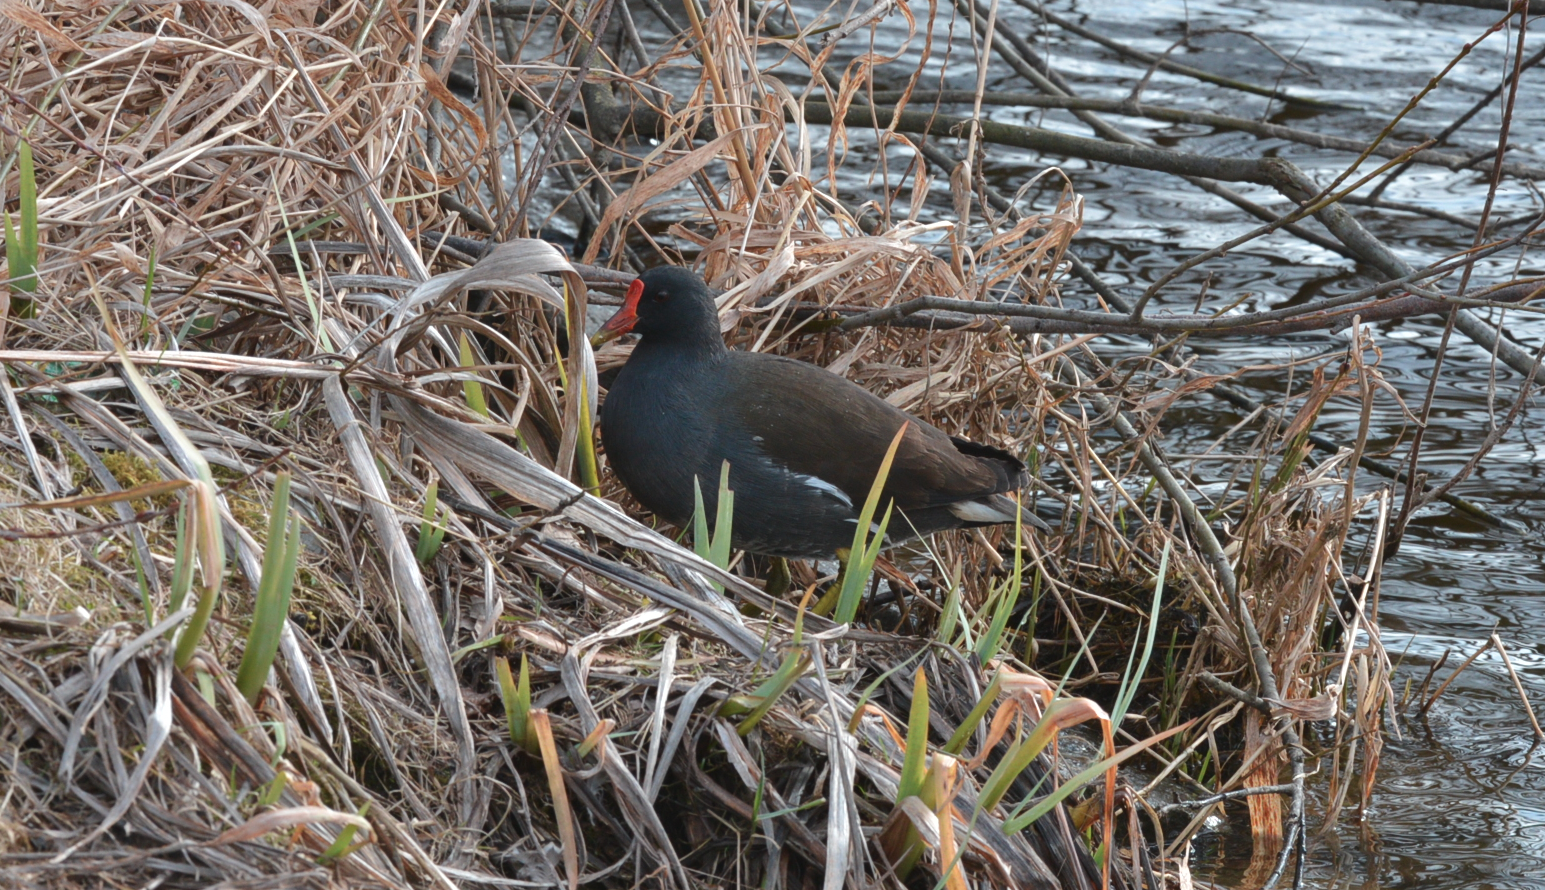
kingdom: Animalia
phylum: Chordata
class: Aves
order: Gruiformes
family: Rallidae
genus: Gallinula
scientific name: Gallinula chloropus
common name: Common moorhen
